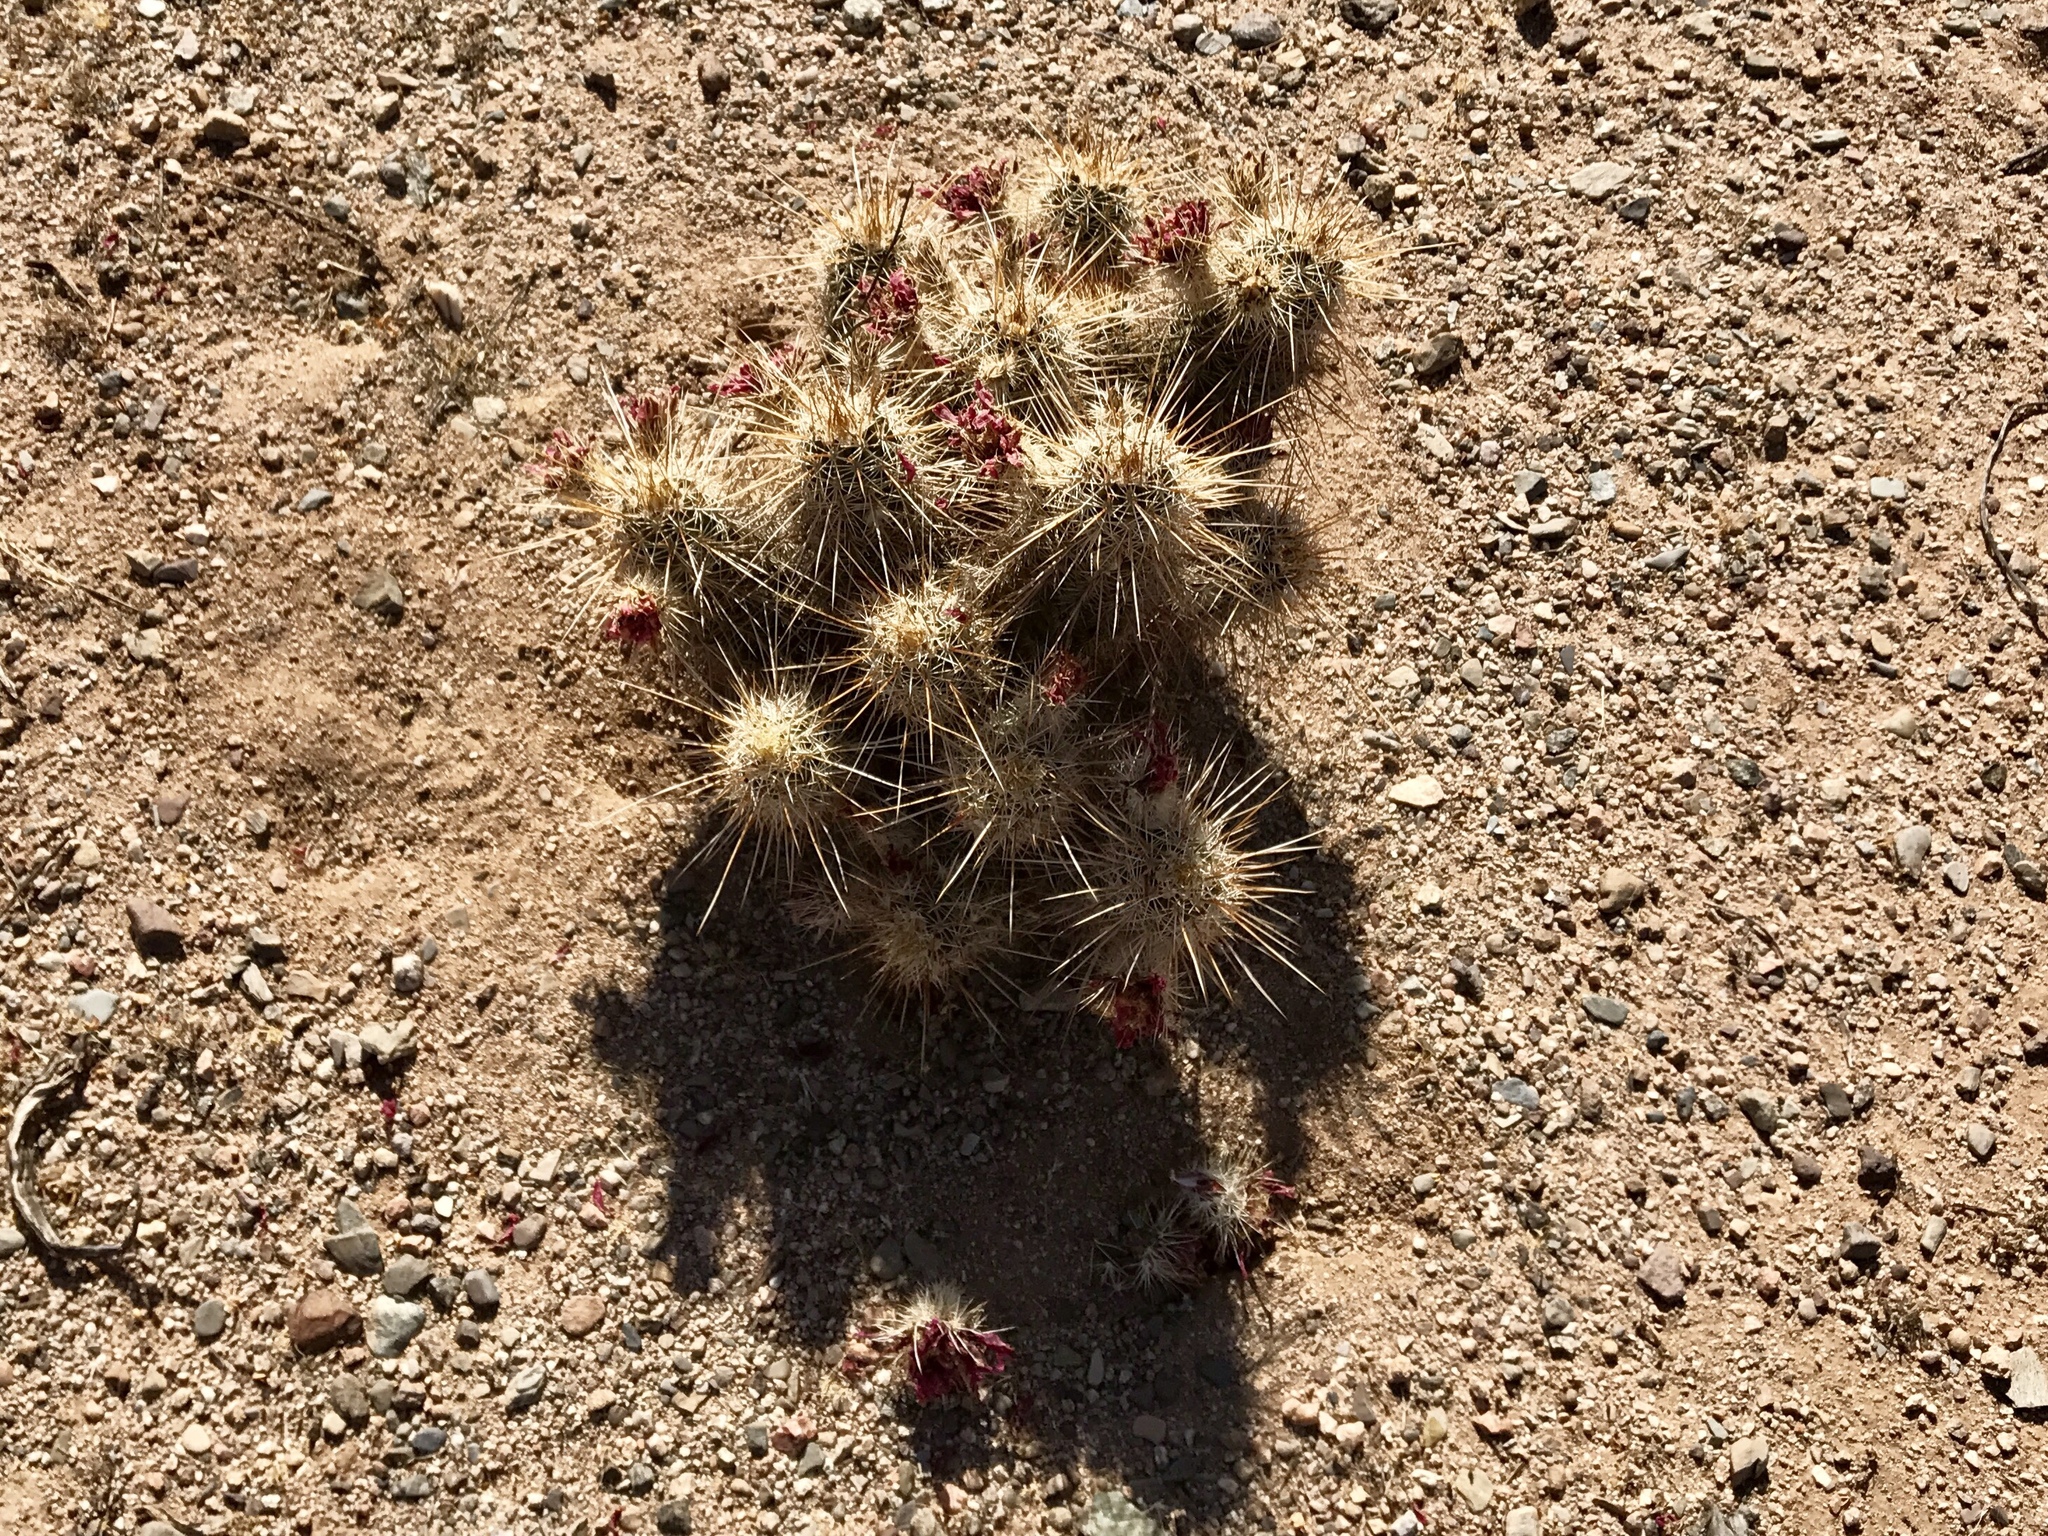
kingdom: Plantae
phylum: Tracheophyta
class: Magnoliopsida
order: Caryophyllales
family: Cactaceae
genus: Echinocereus
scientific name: Echinocereus engelmannii
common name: Engelmann's hedgehog cactus
